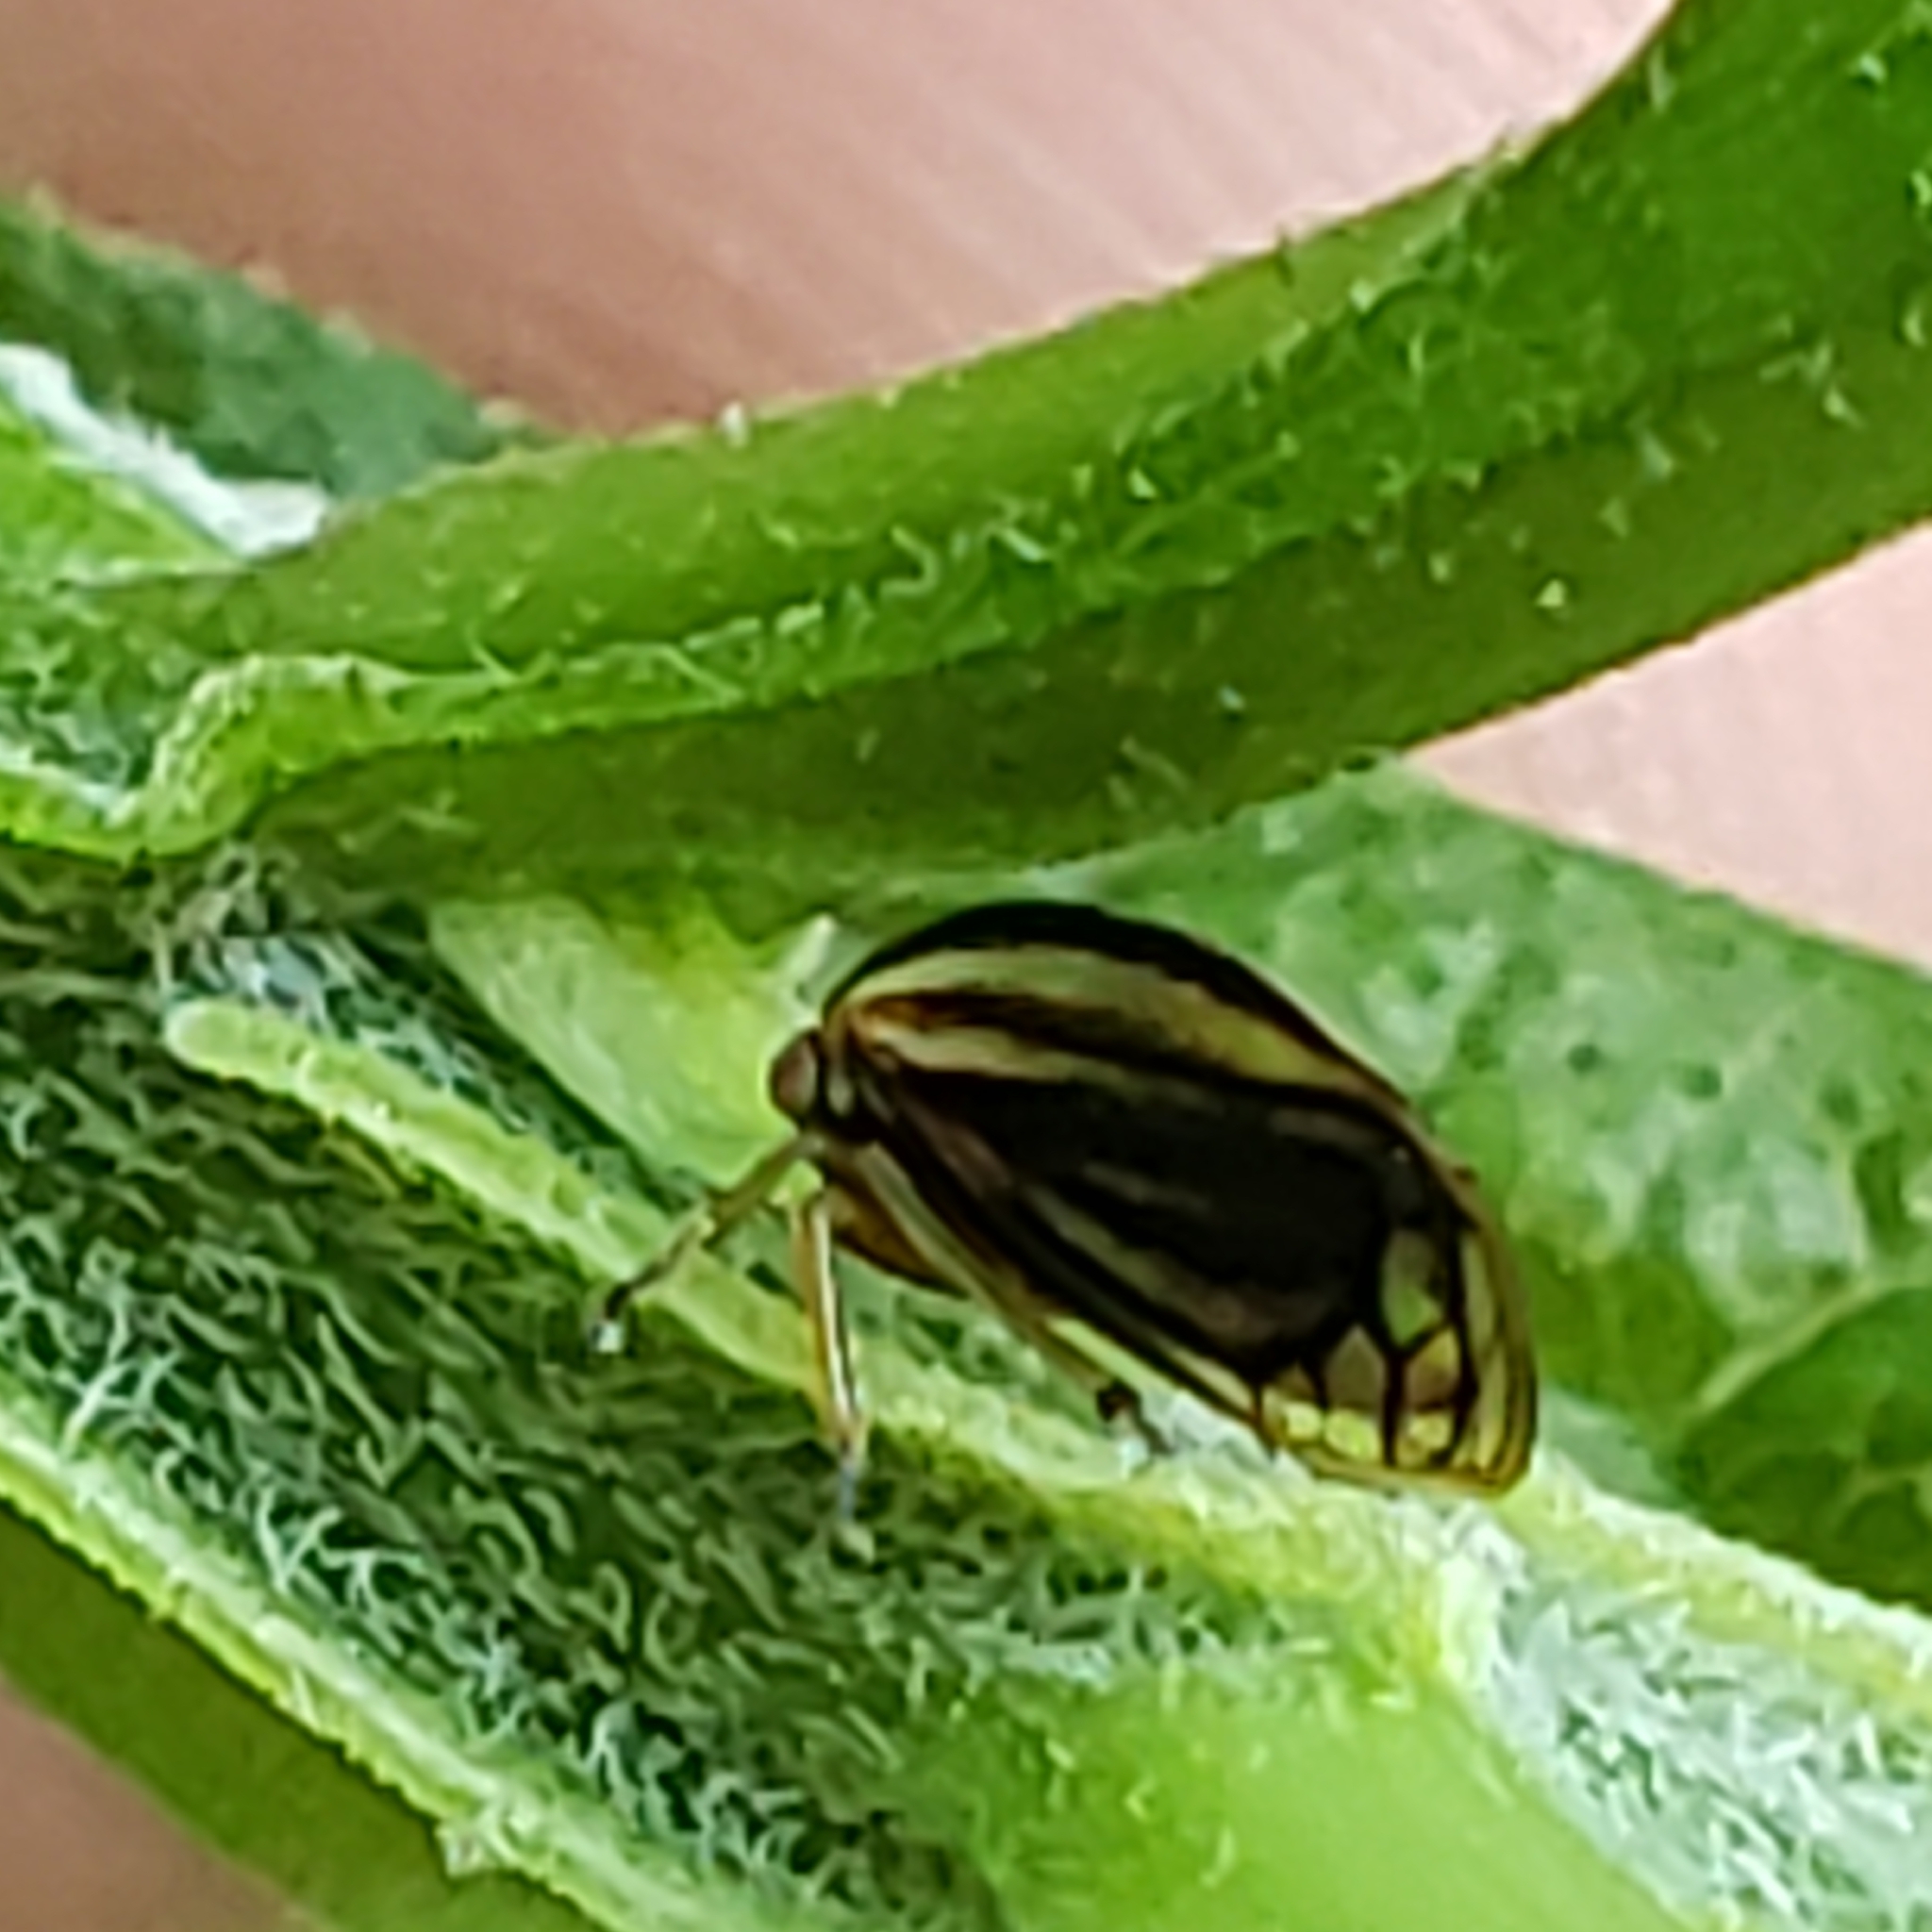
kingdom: Animalia
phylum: Arthropoda
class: Insecta
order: Hemiptera
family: Membracidae
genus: Acutalis
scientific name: Acutalis tartarea
